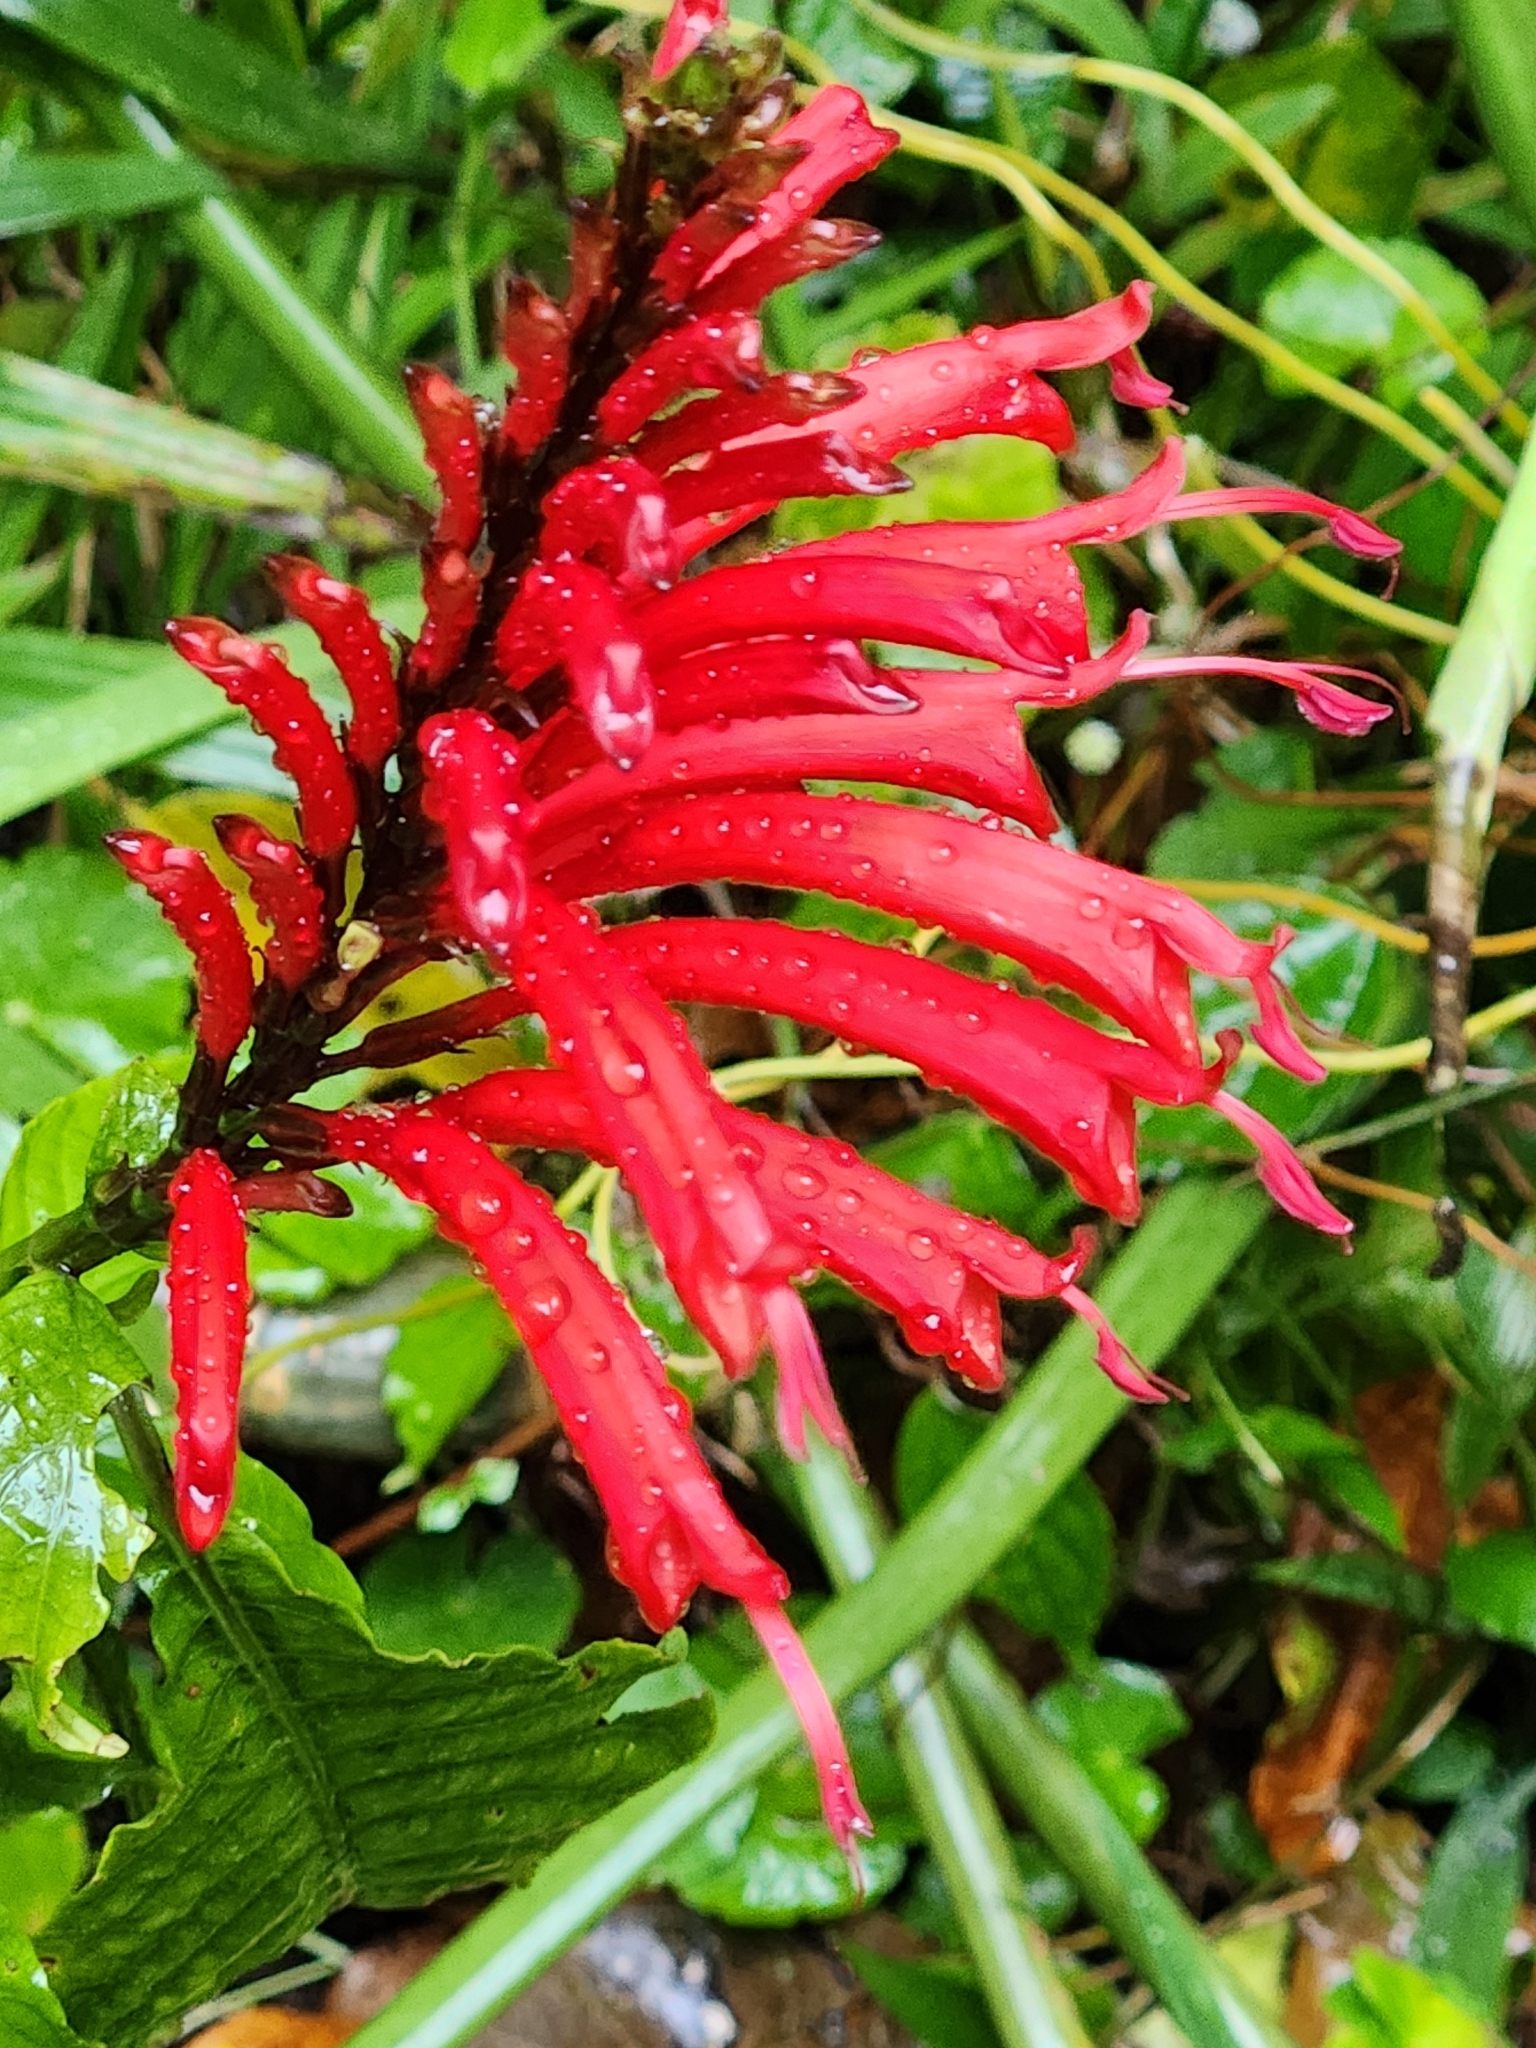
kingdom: Plantae
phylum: Tracheophyta
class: Magnoliopsida
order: Lamiales
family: Acanthaceae
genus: Stenostephanus
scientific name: Stenostephanus leiorhachis
